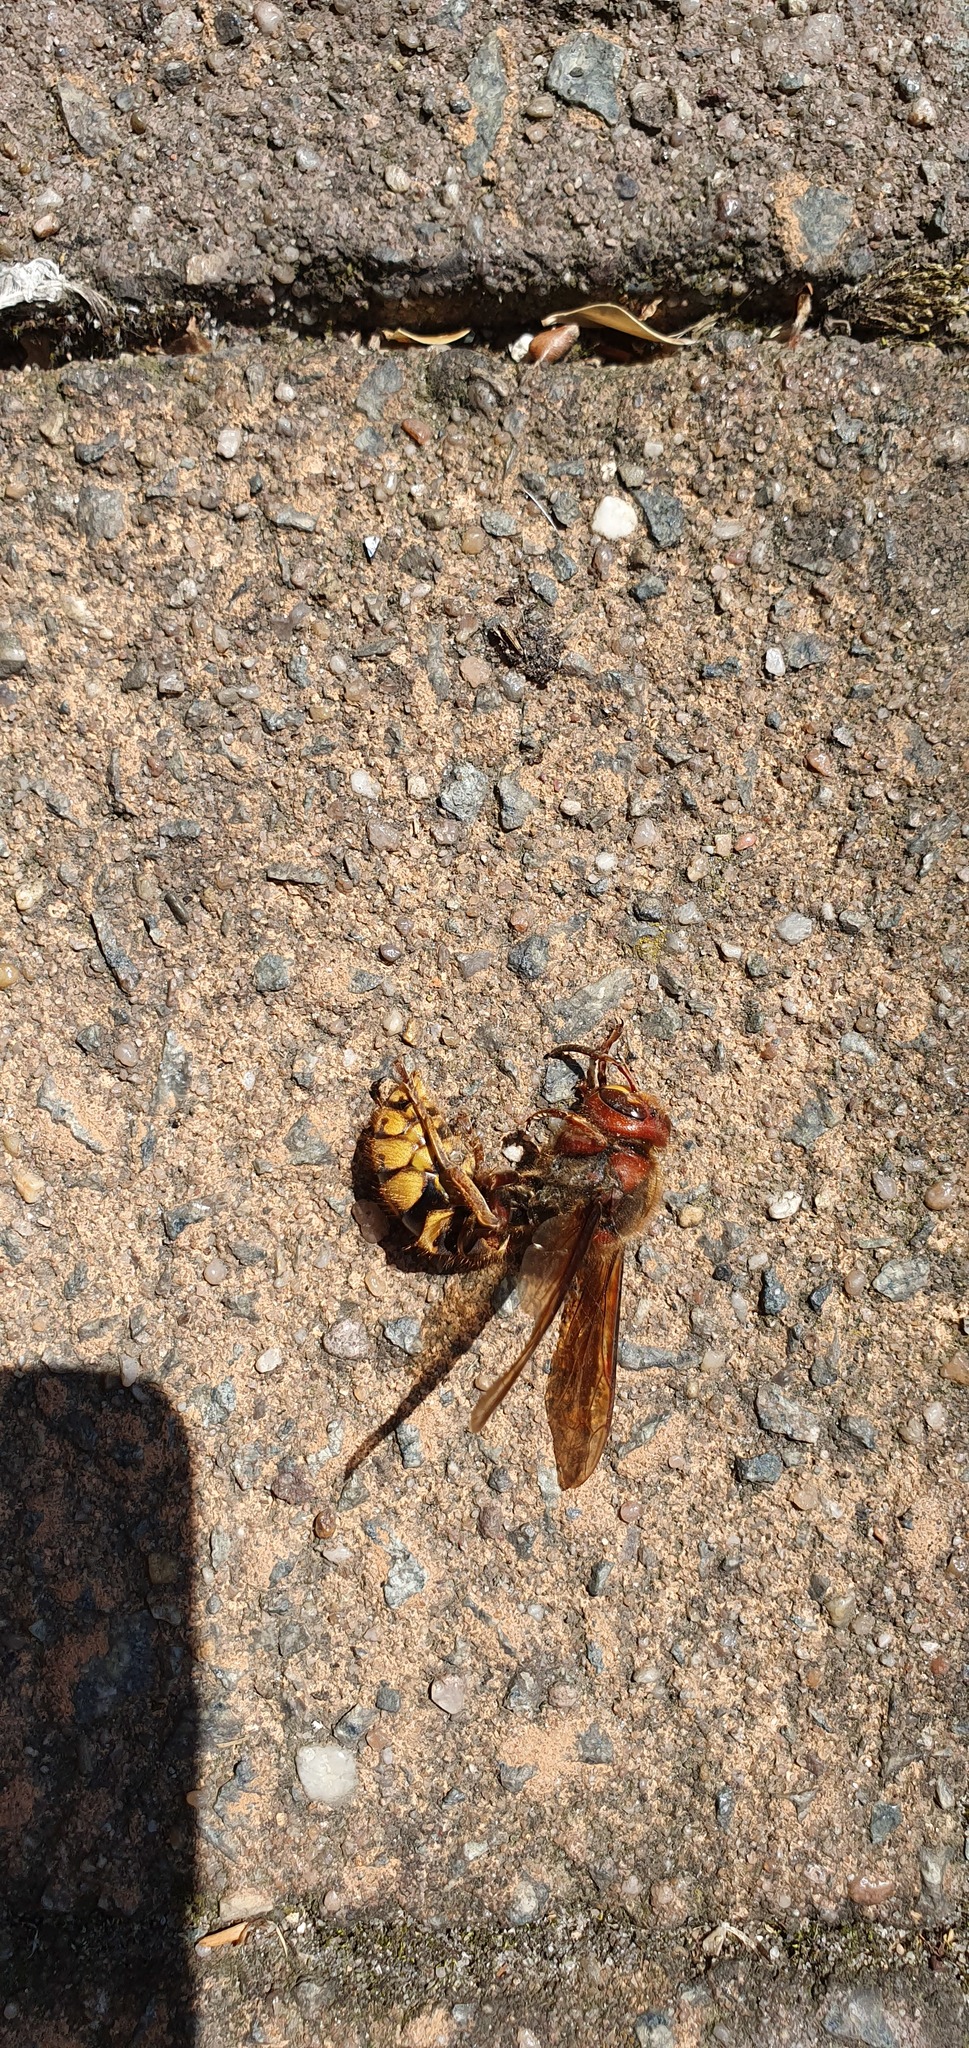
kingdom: Animalia
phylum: Arthropoda
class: Insecta
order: Hymenoptera
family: Vespidae
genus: Vespa
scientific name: Vespa crabro
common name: Hornet
